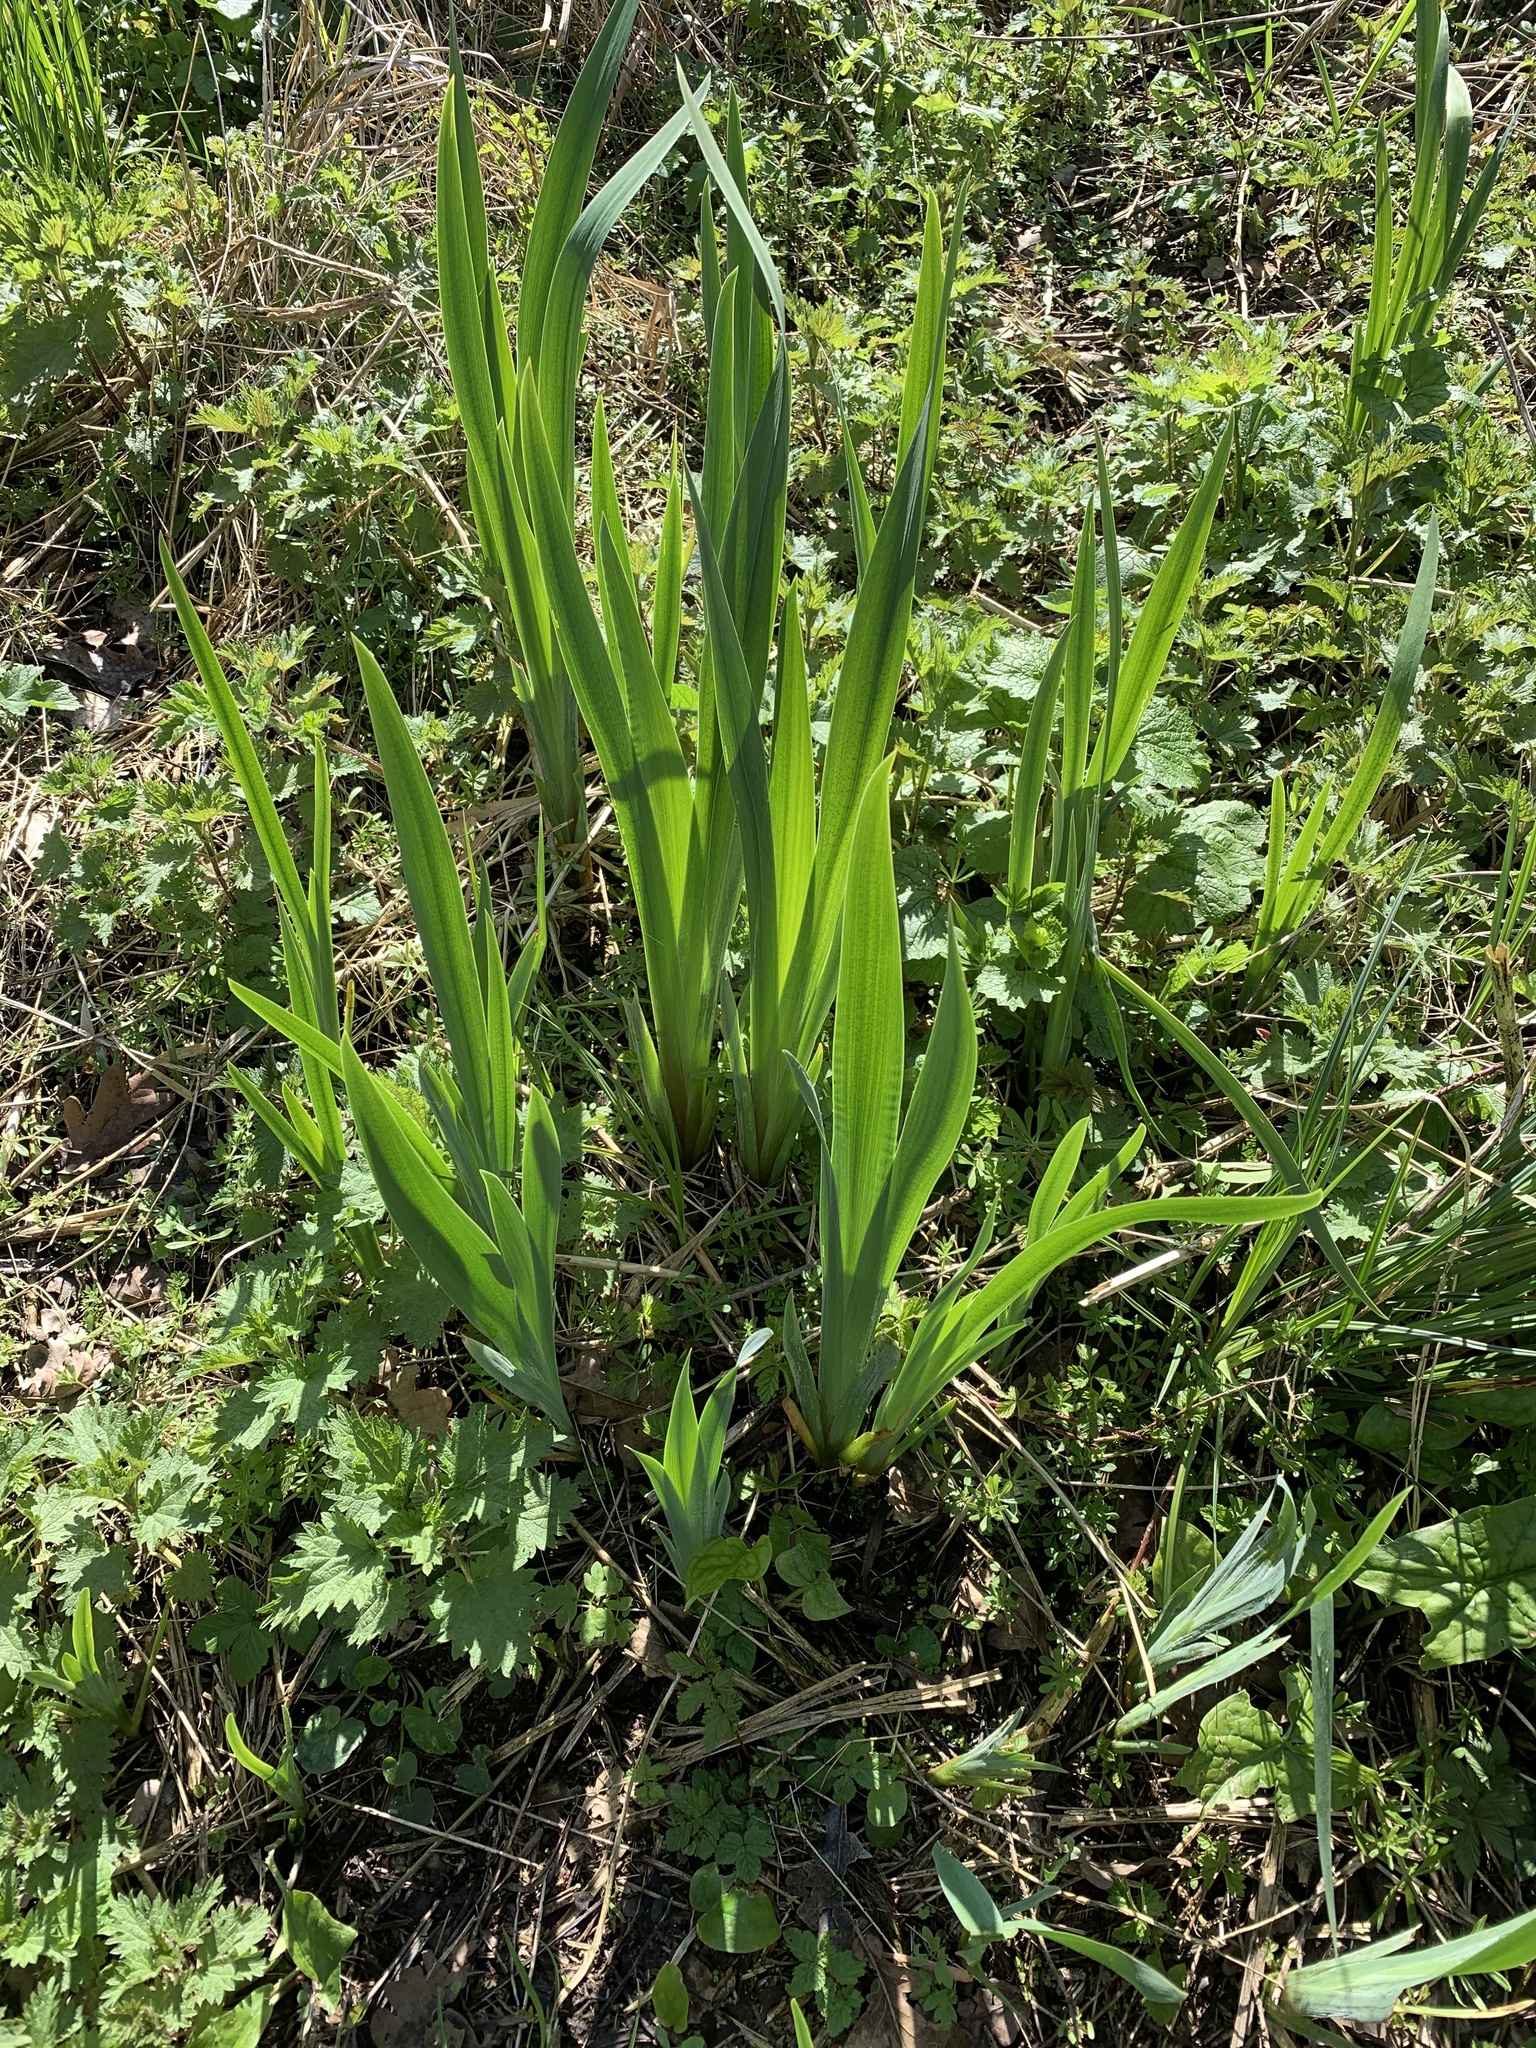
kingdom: Plantae
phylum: Tracheophyta
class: Liliopsida
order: Asparagales
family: Iridaceae
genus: Iris
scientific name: Iris pseudacorus
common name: Yellow flag
